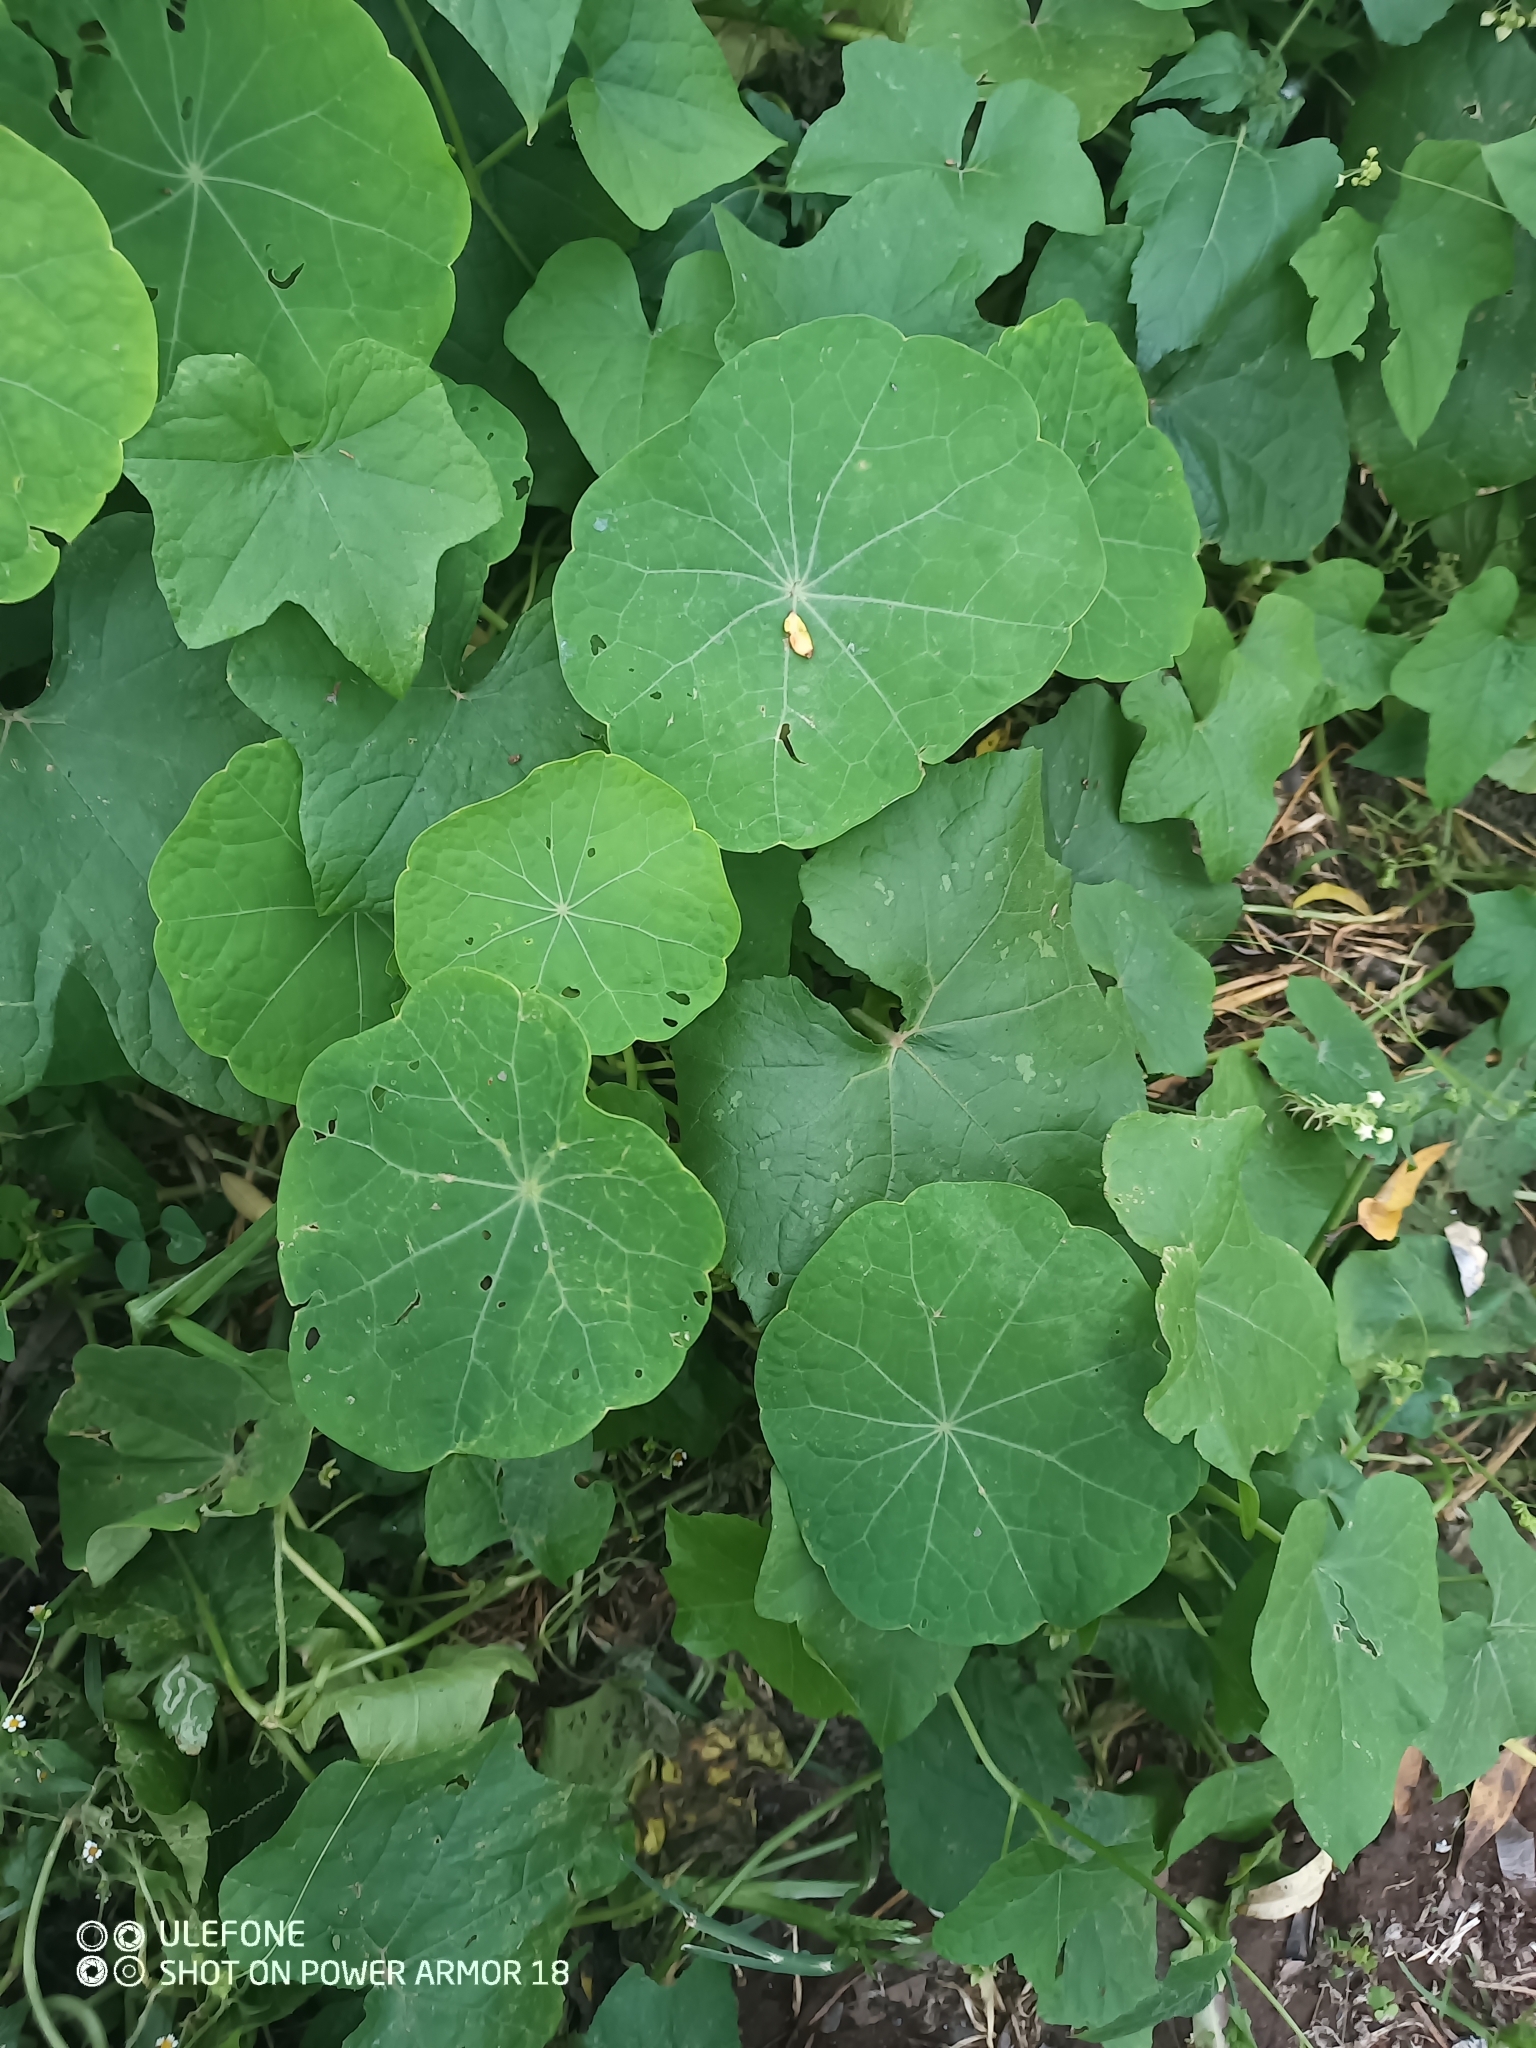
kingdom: Plantae
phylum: Tracheophyta
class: Magnoliopsida
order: Brassicales
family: Tropaeolaceae
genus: Tropaeolum
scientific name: Tropaeolum majus
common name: Nasturtium
